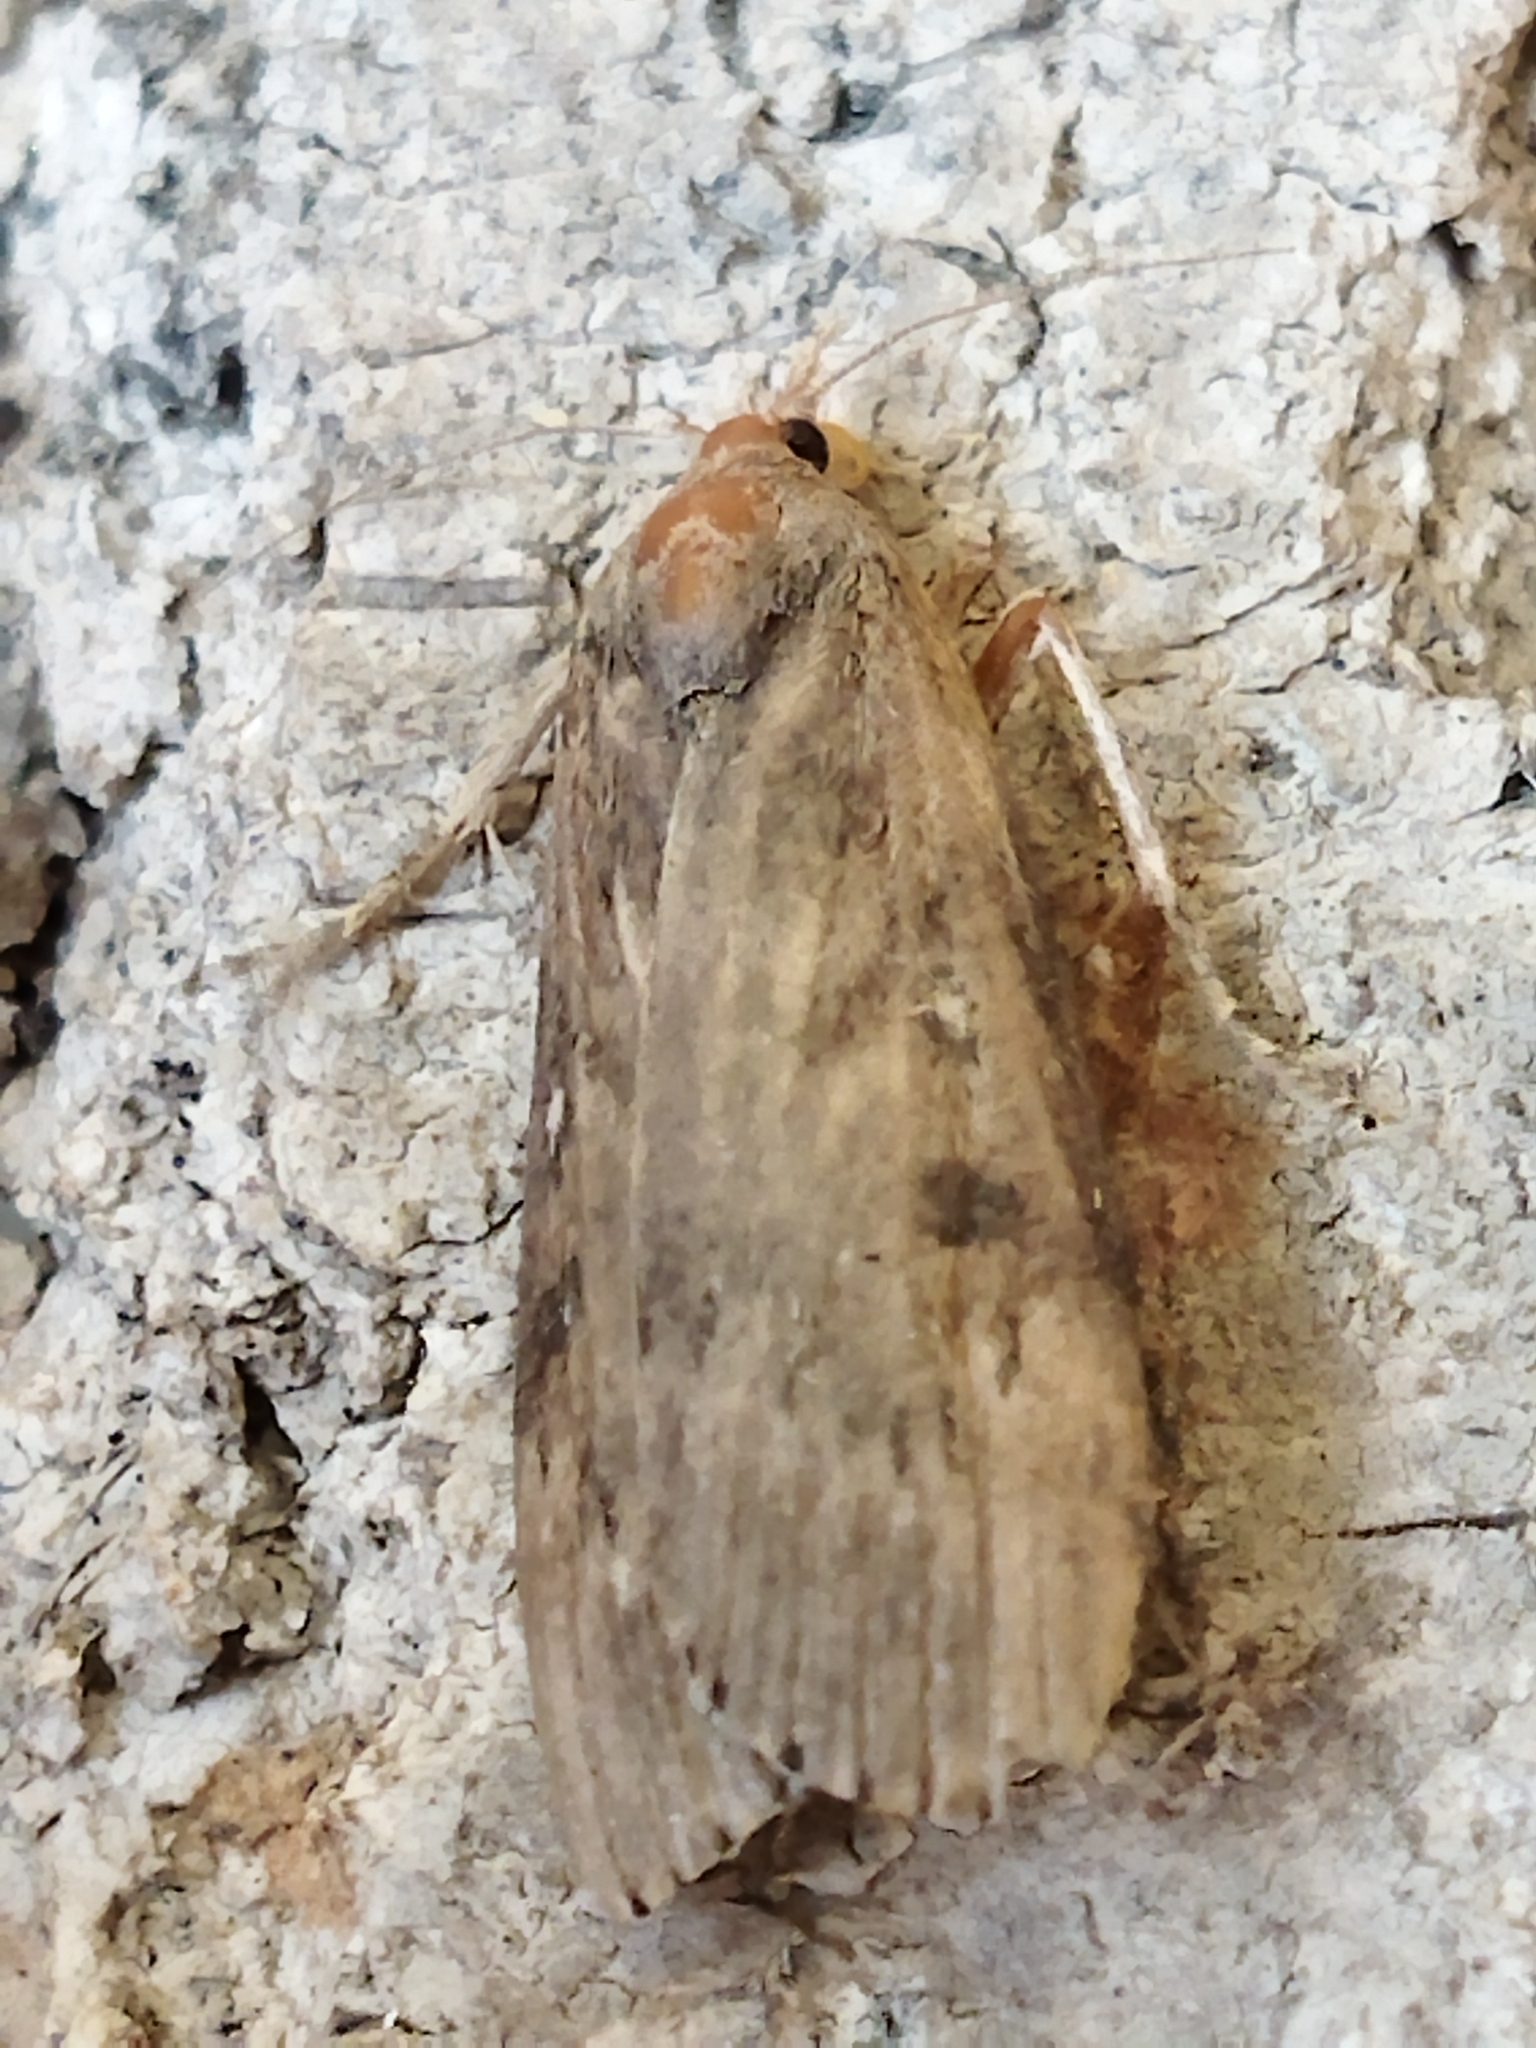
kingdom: Animalia
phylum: Arthropoda
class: Insecta
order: Lepidoptera
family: Pyralidae
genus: Lamoria
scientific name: Lamoria anella
